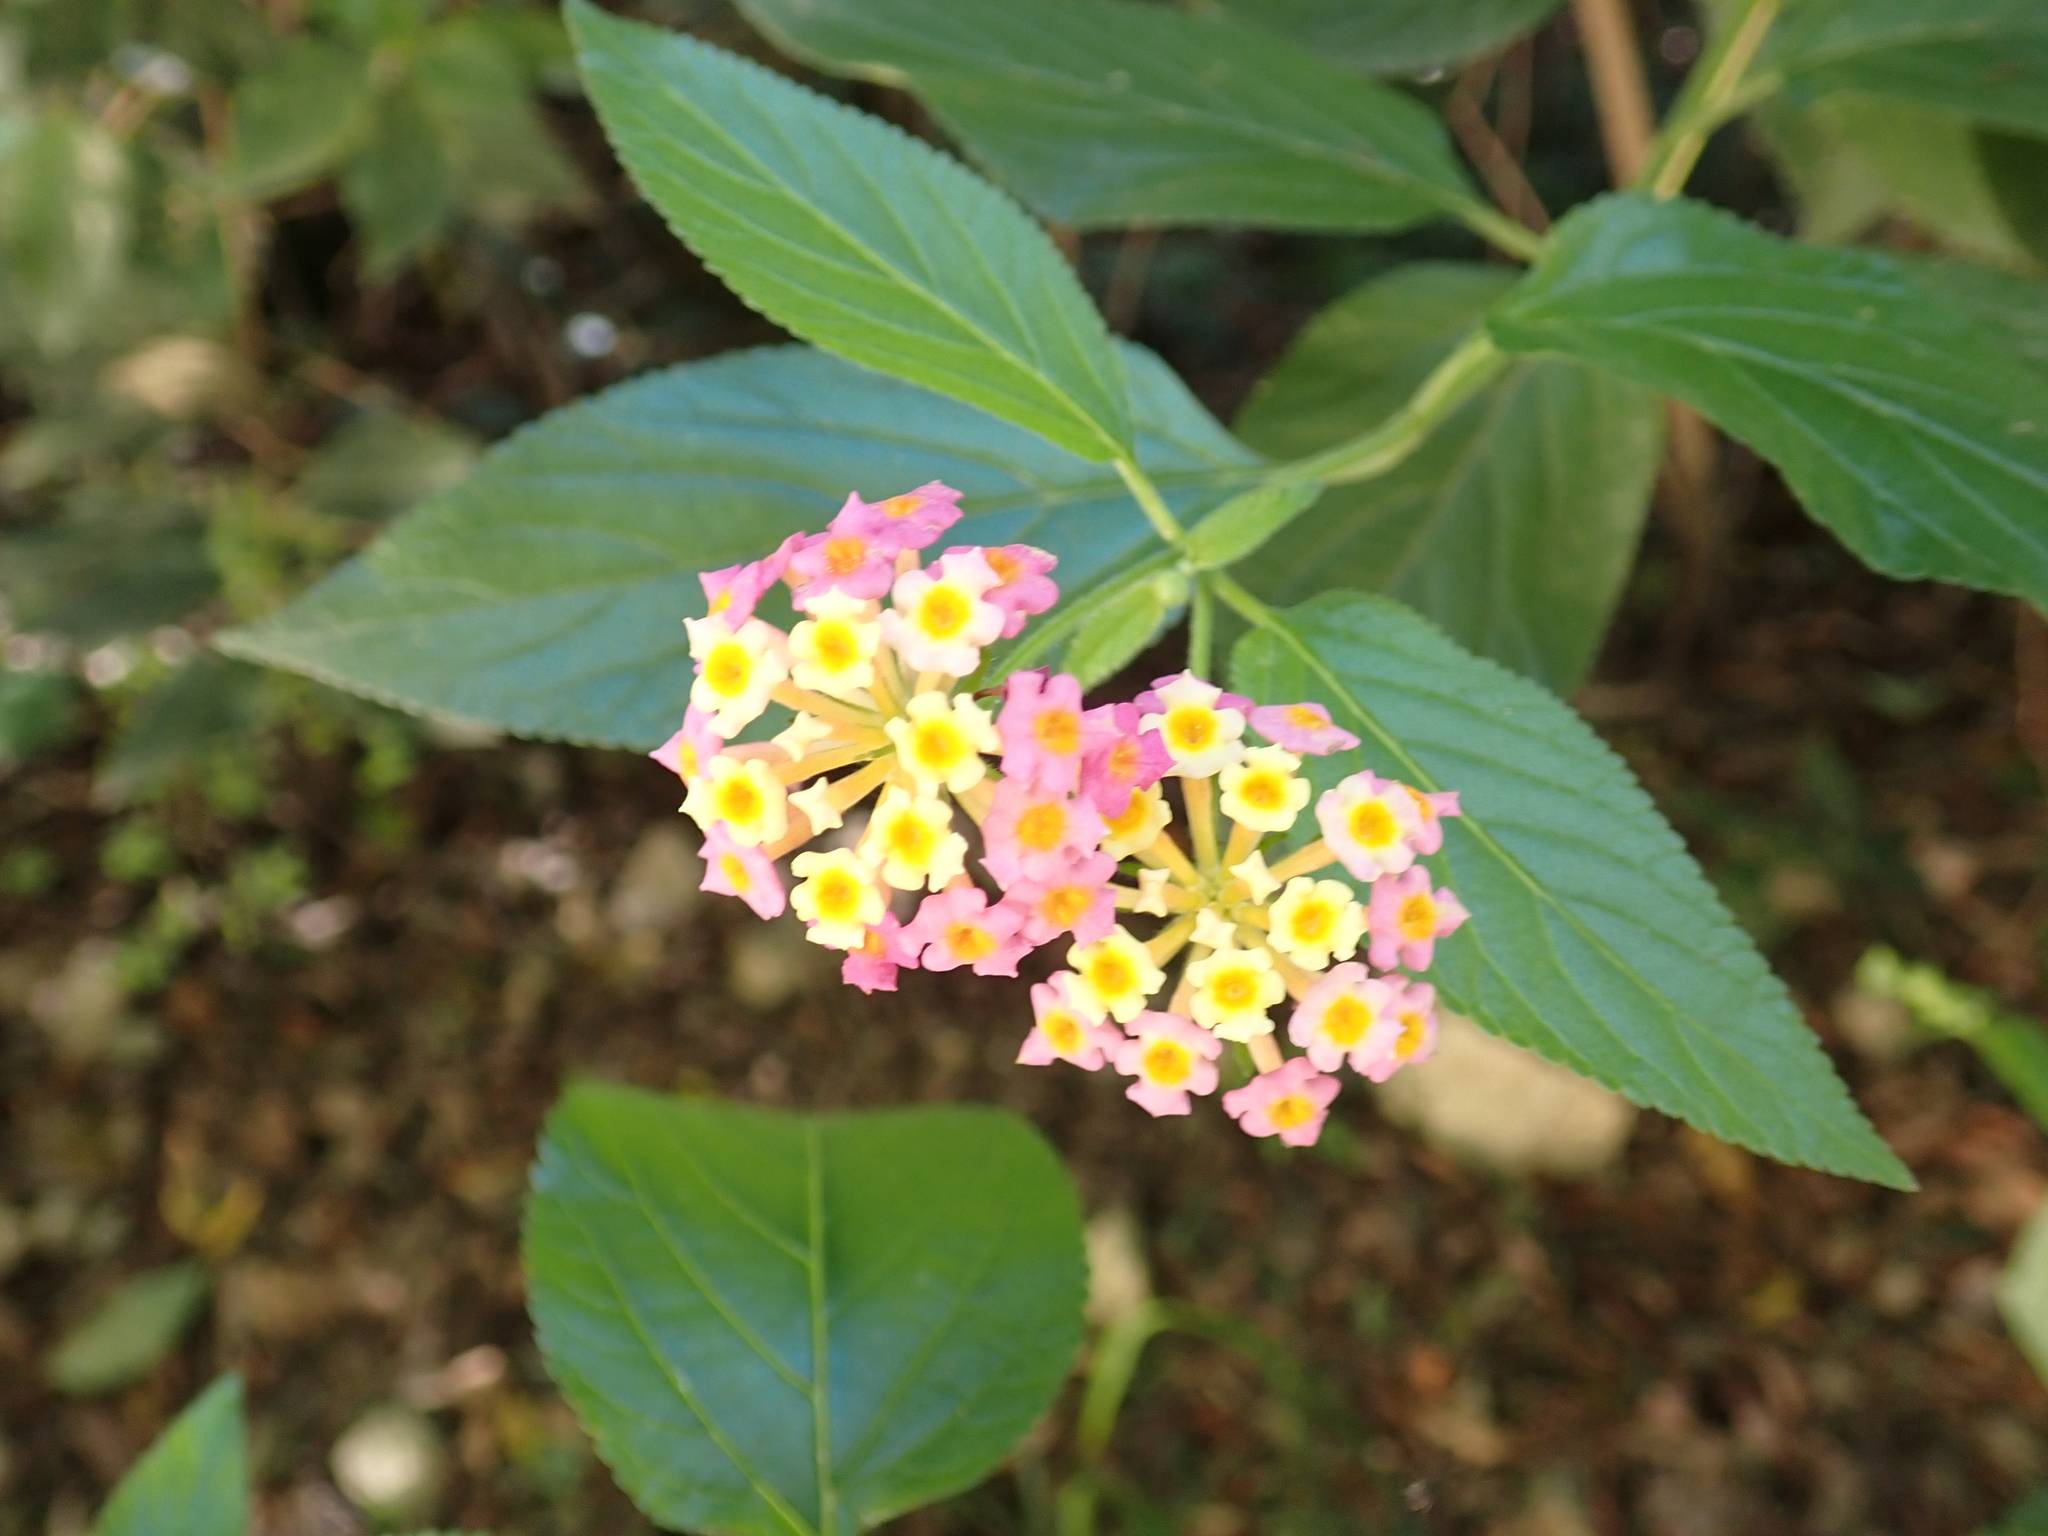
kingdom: Plantae
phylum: Tracheophyta
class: Magnoliopsida
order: Lamiales
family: Verbenaceae
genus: Lantana
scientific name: Lantana camara
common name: Lantana
